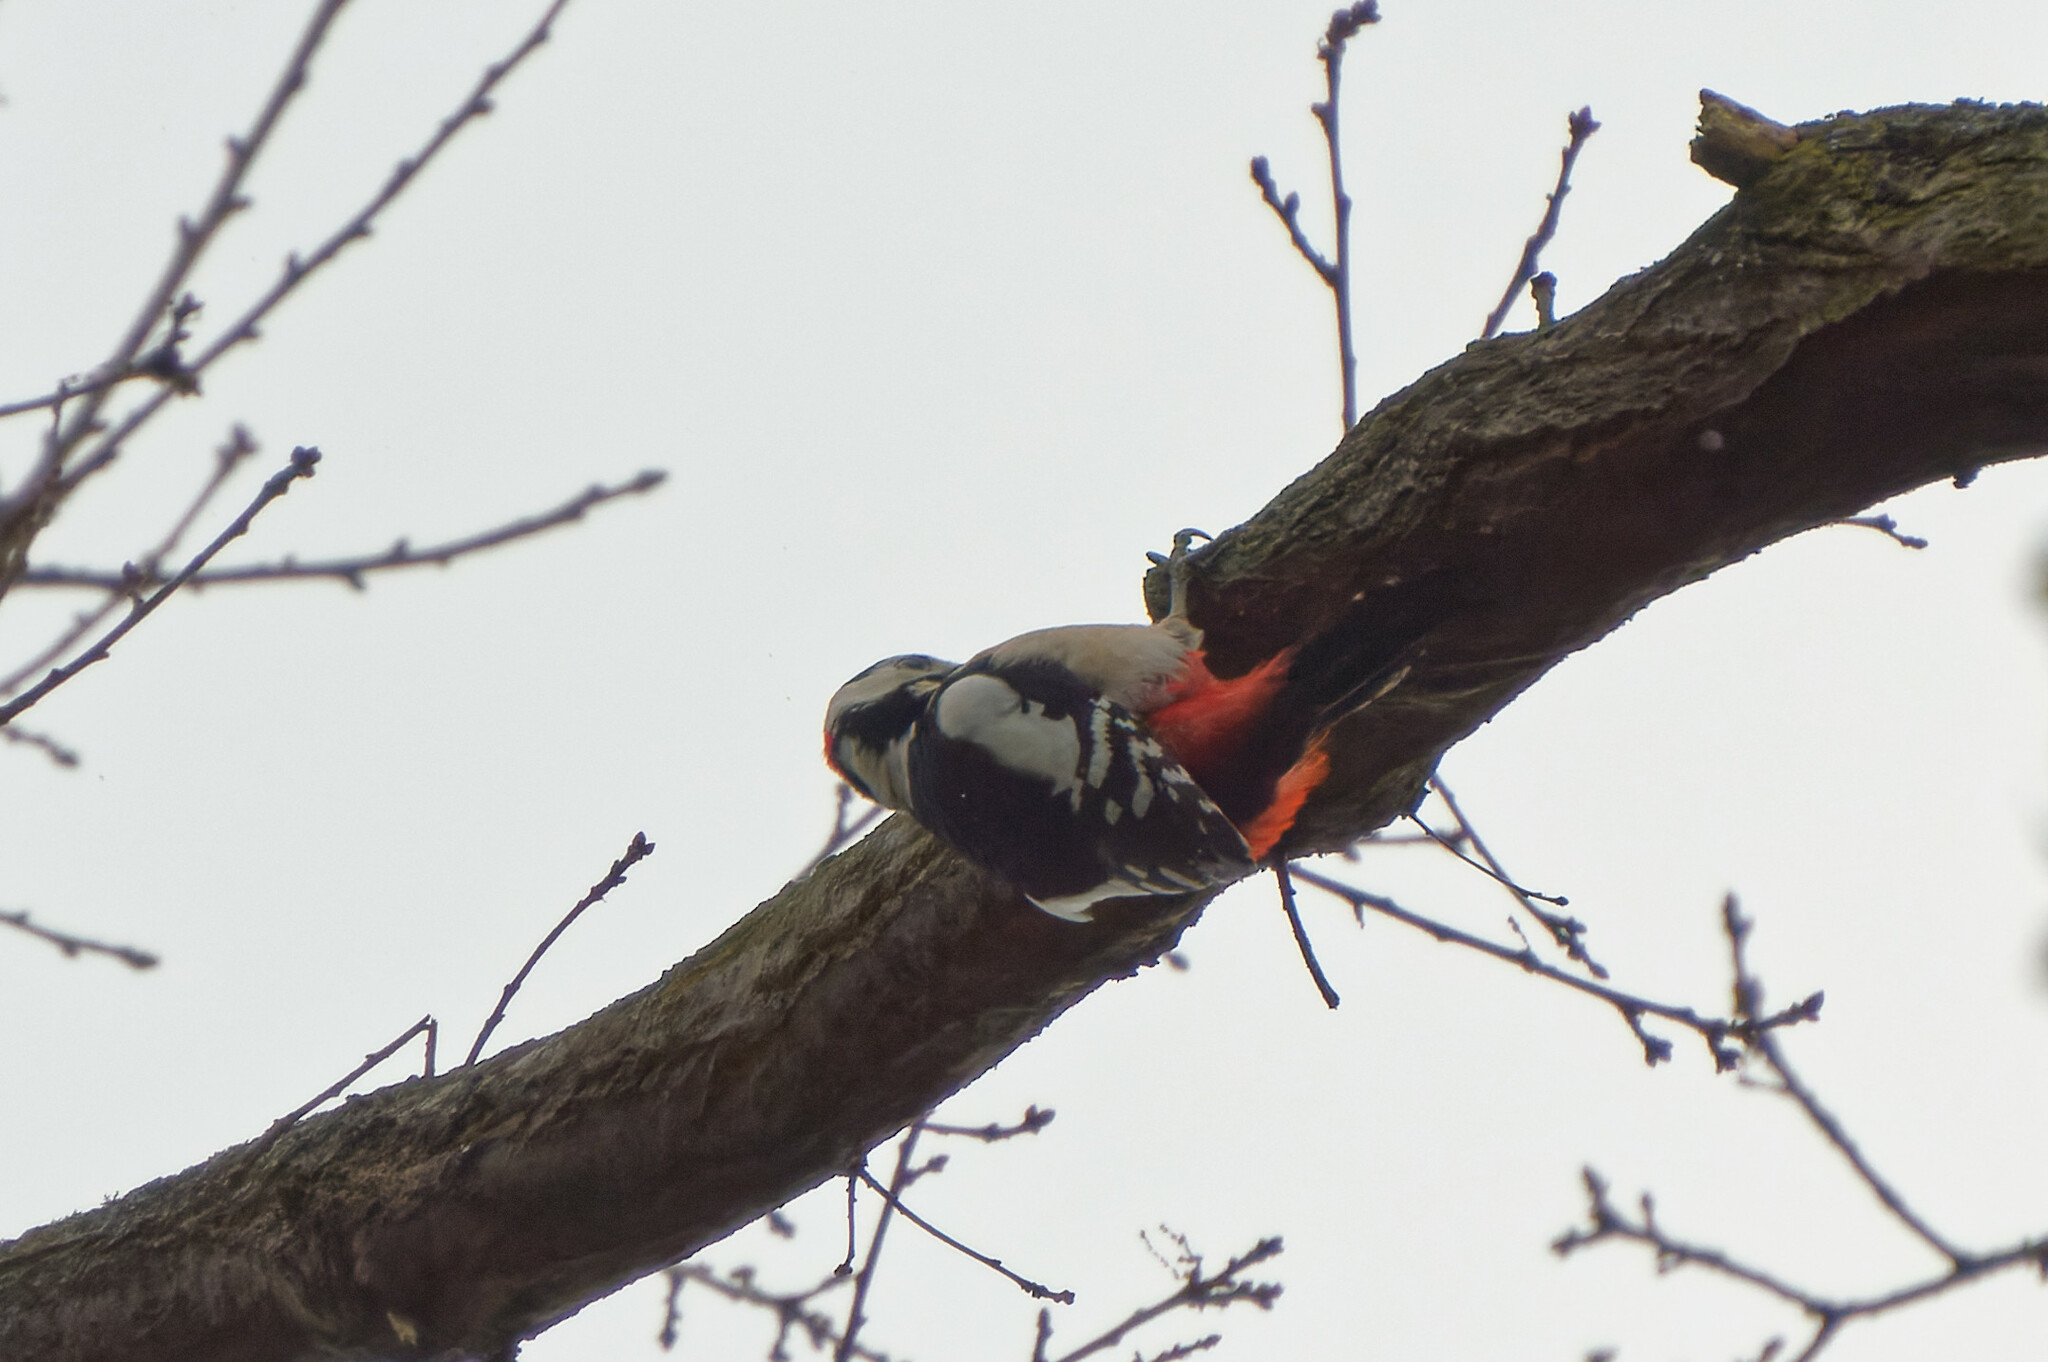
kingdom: Animalia
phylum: Chordata
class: Aves
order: Piciformes
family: Picidae
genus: Dendrocopos
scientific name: Dendrocopos major
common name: Great spotted woodpecker
